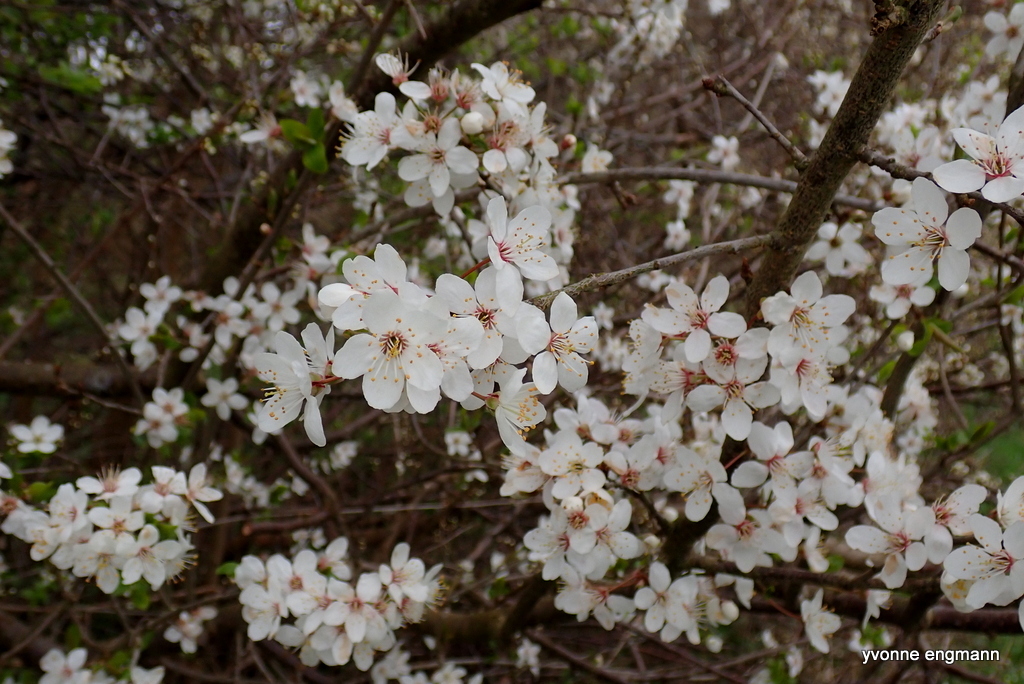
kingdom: Plantae
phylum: Tracheophyta
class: Magnoliopsida
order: Rosales
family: Rosaceae
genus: Prunus
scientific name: Prunus cerasifera
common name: Cherry plum
